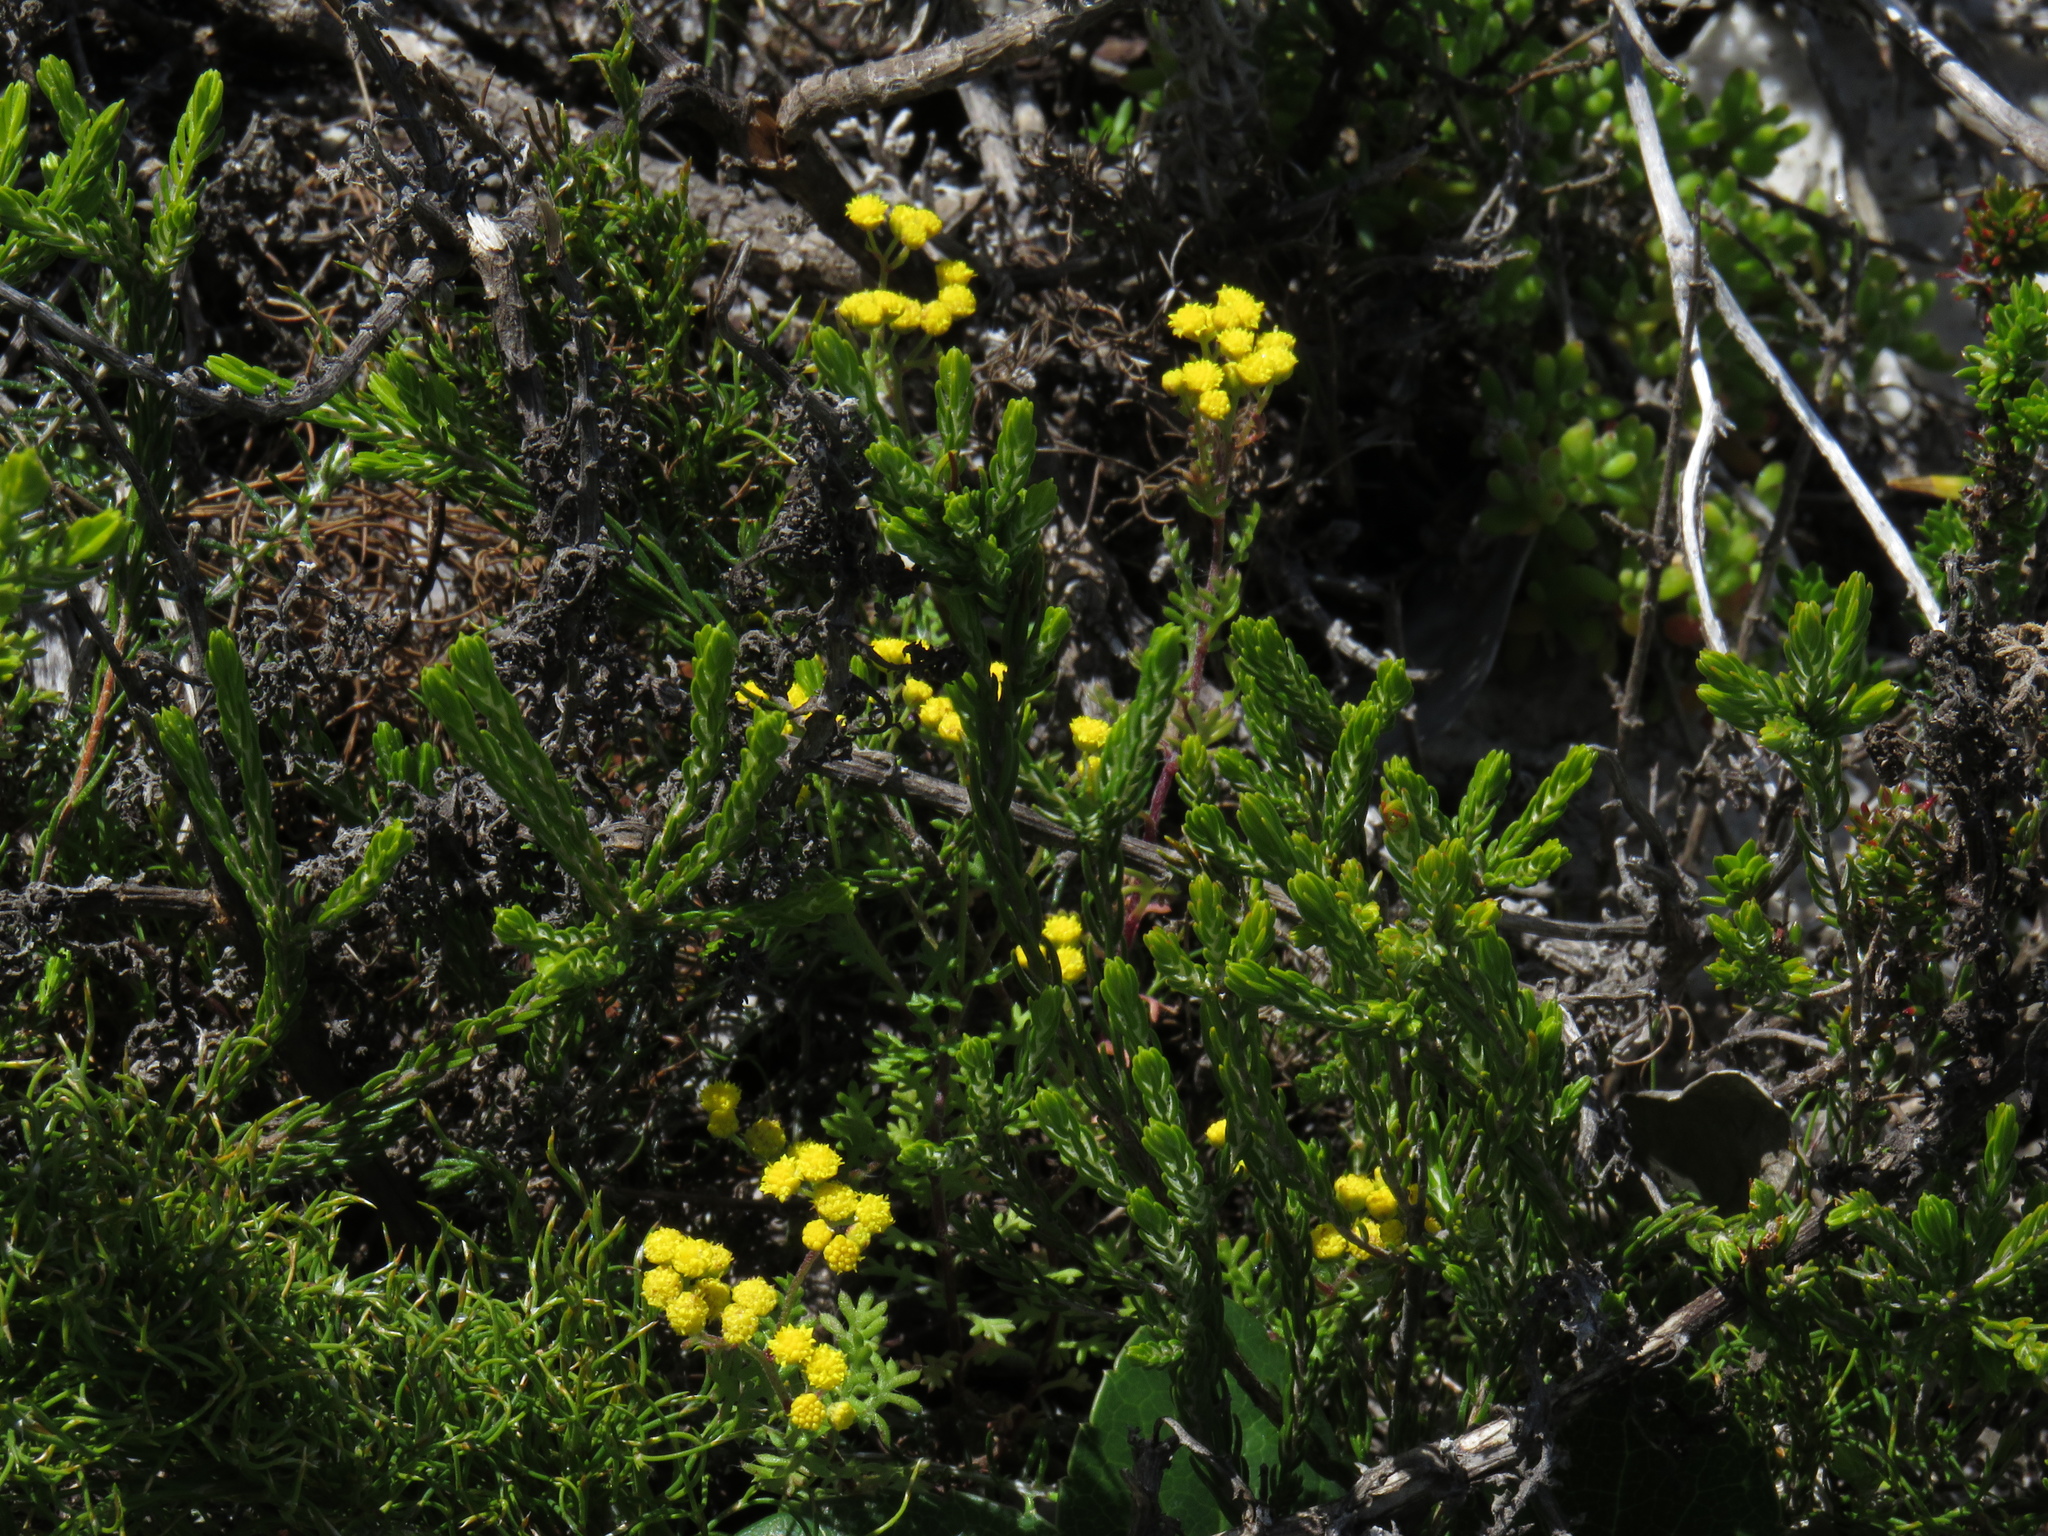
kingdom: Plantae
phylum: Tracheophyta
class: Magnoliopsida
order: Asterales
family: Asteraceae
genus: Hippia
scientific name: Hippia pilosa
